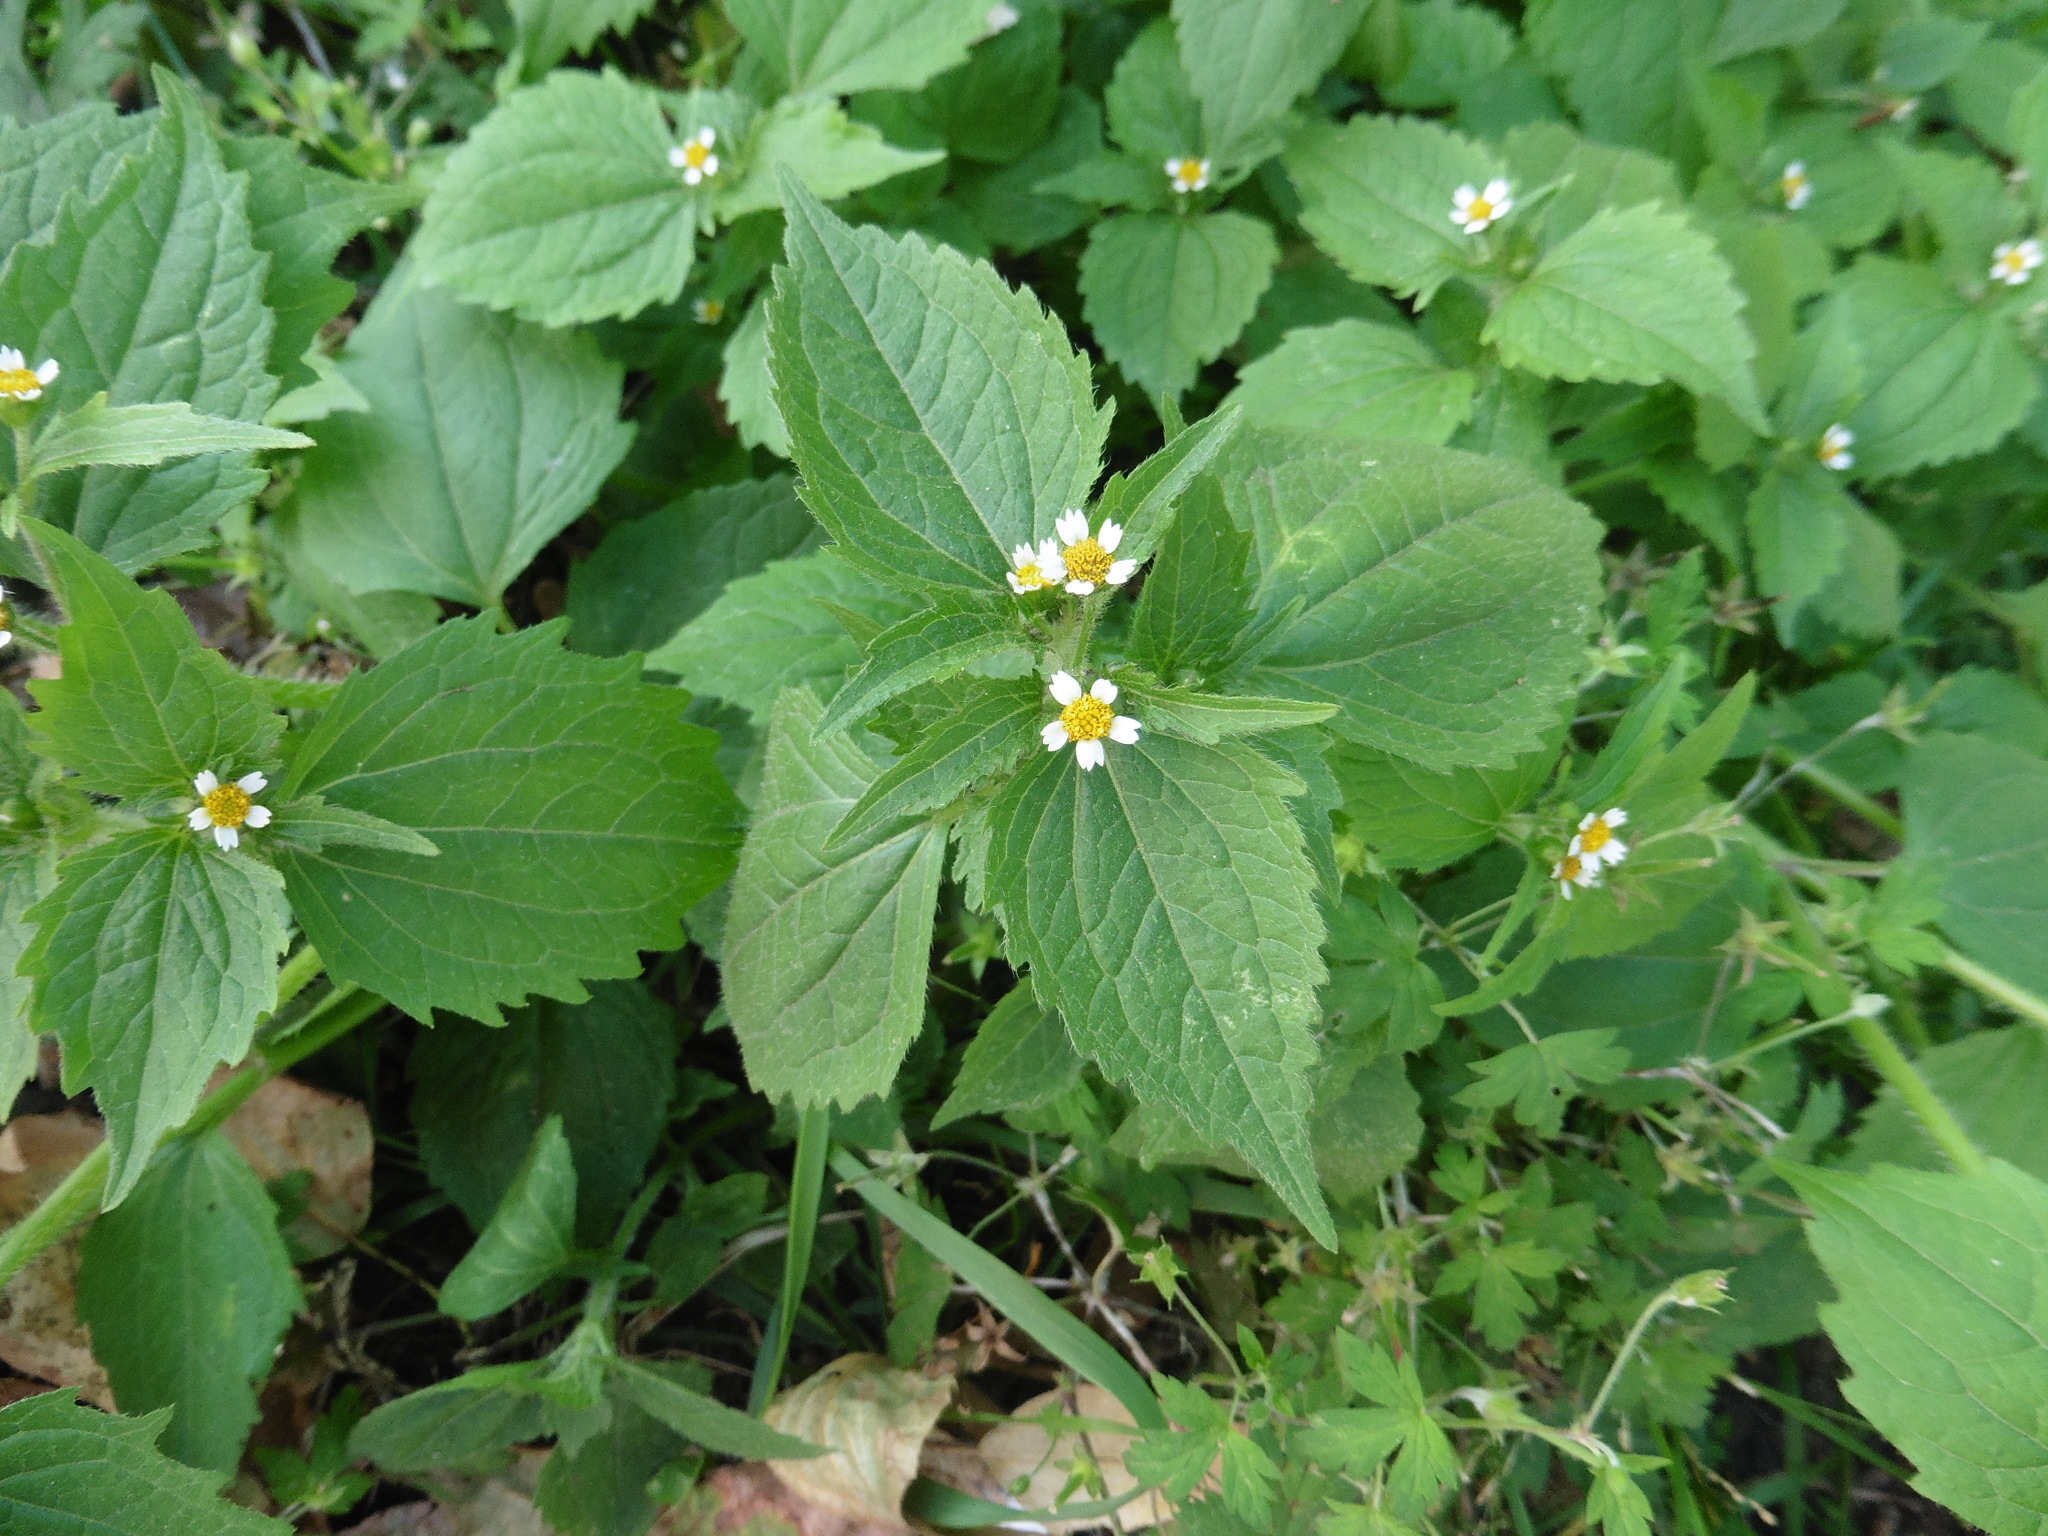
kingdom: Plantae
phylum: Tracheophyta
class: Magnoliopsida
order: Asterales
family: Asteraceae
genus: Galinsoga
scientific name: Galinsoga quadriradiata
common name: Shaggy soldier
